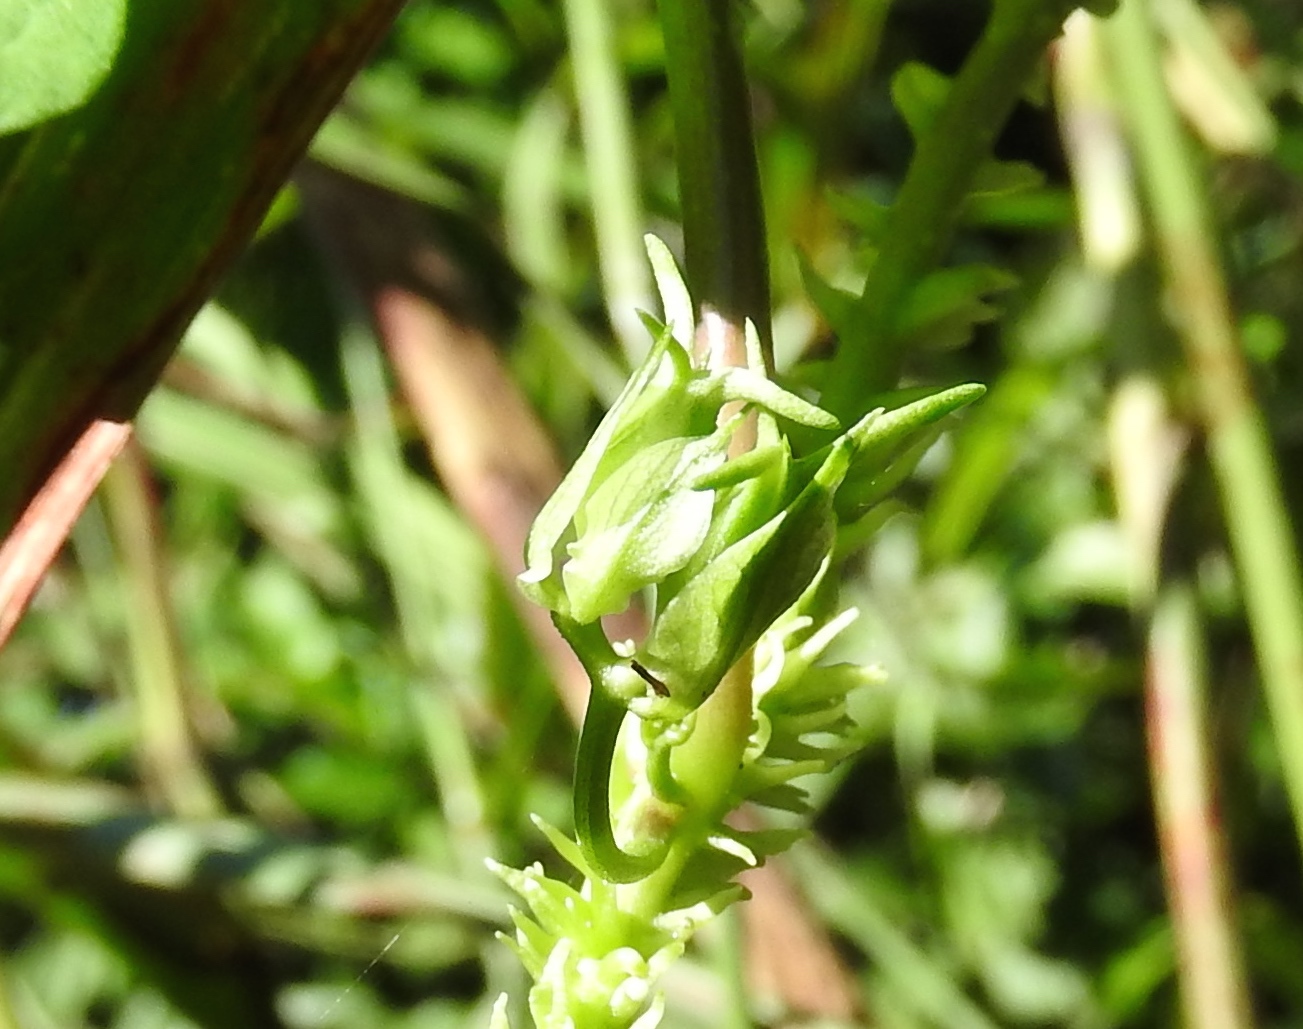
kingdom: Plantae
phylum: Tracheophyta
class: Magnoliopsida
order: Solanales
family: Convolvulaceae
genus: Ipomoea
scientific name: Ipomoea muricata
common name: Lilac-bell
